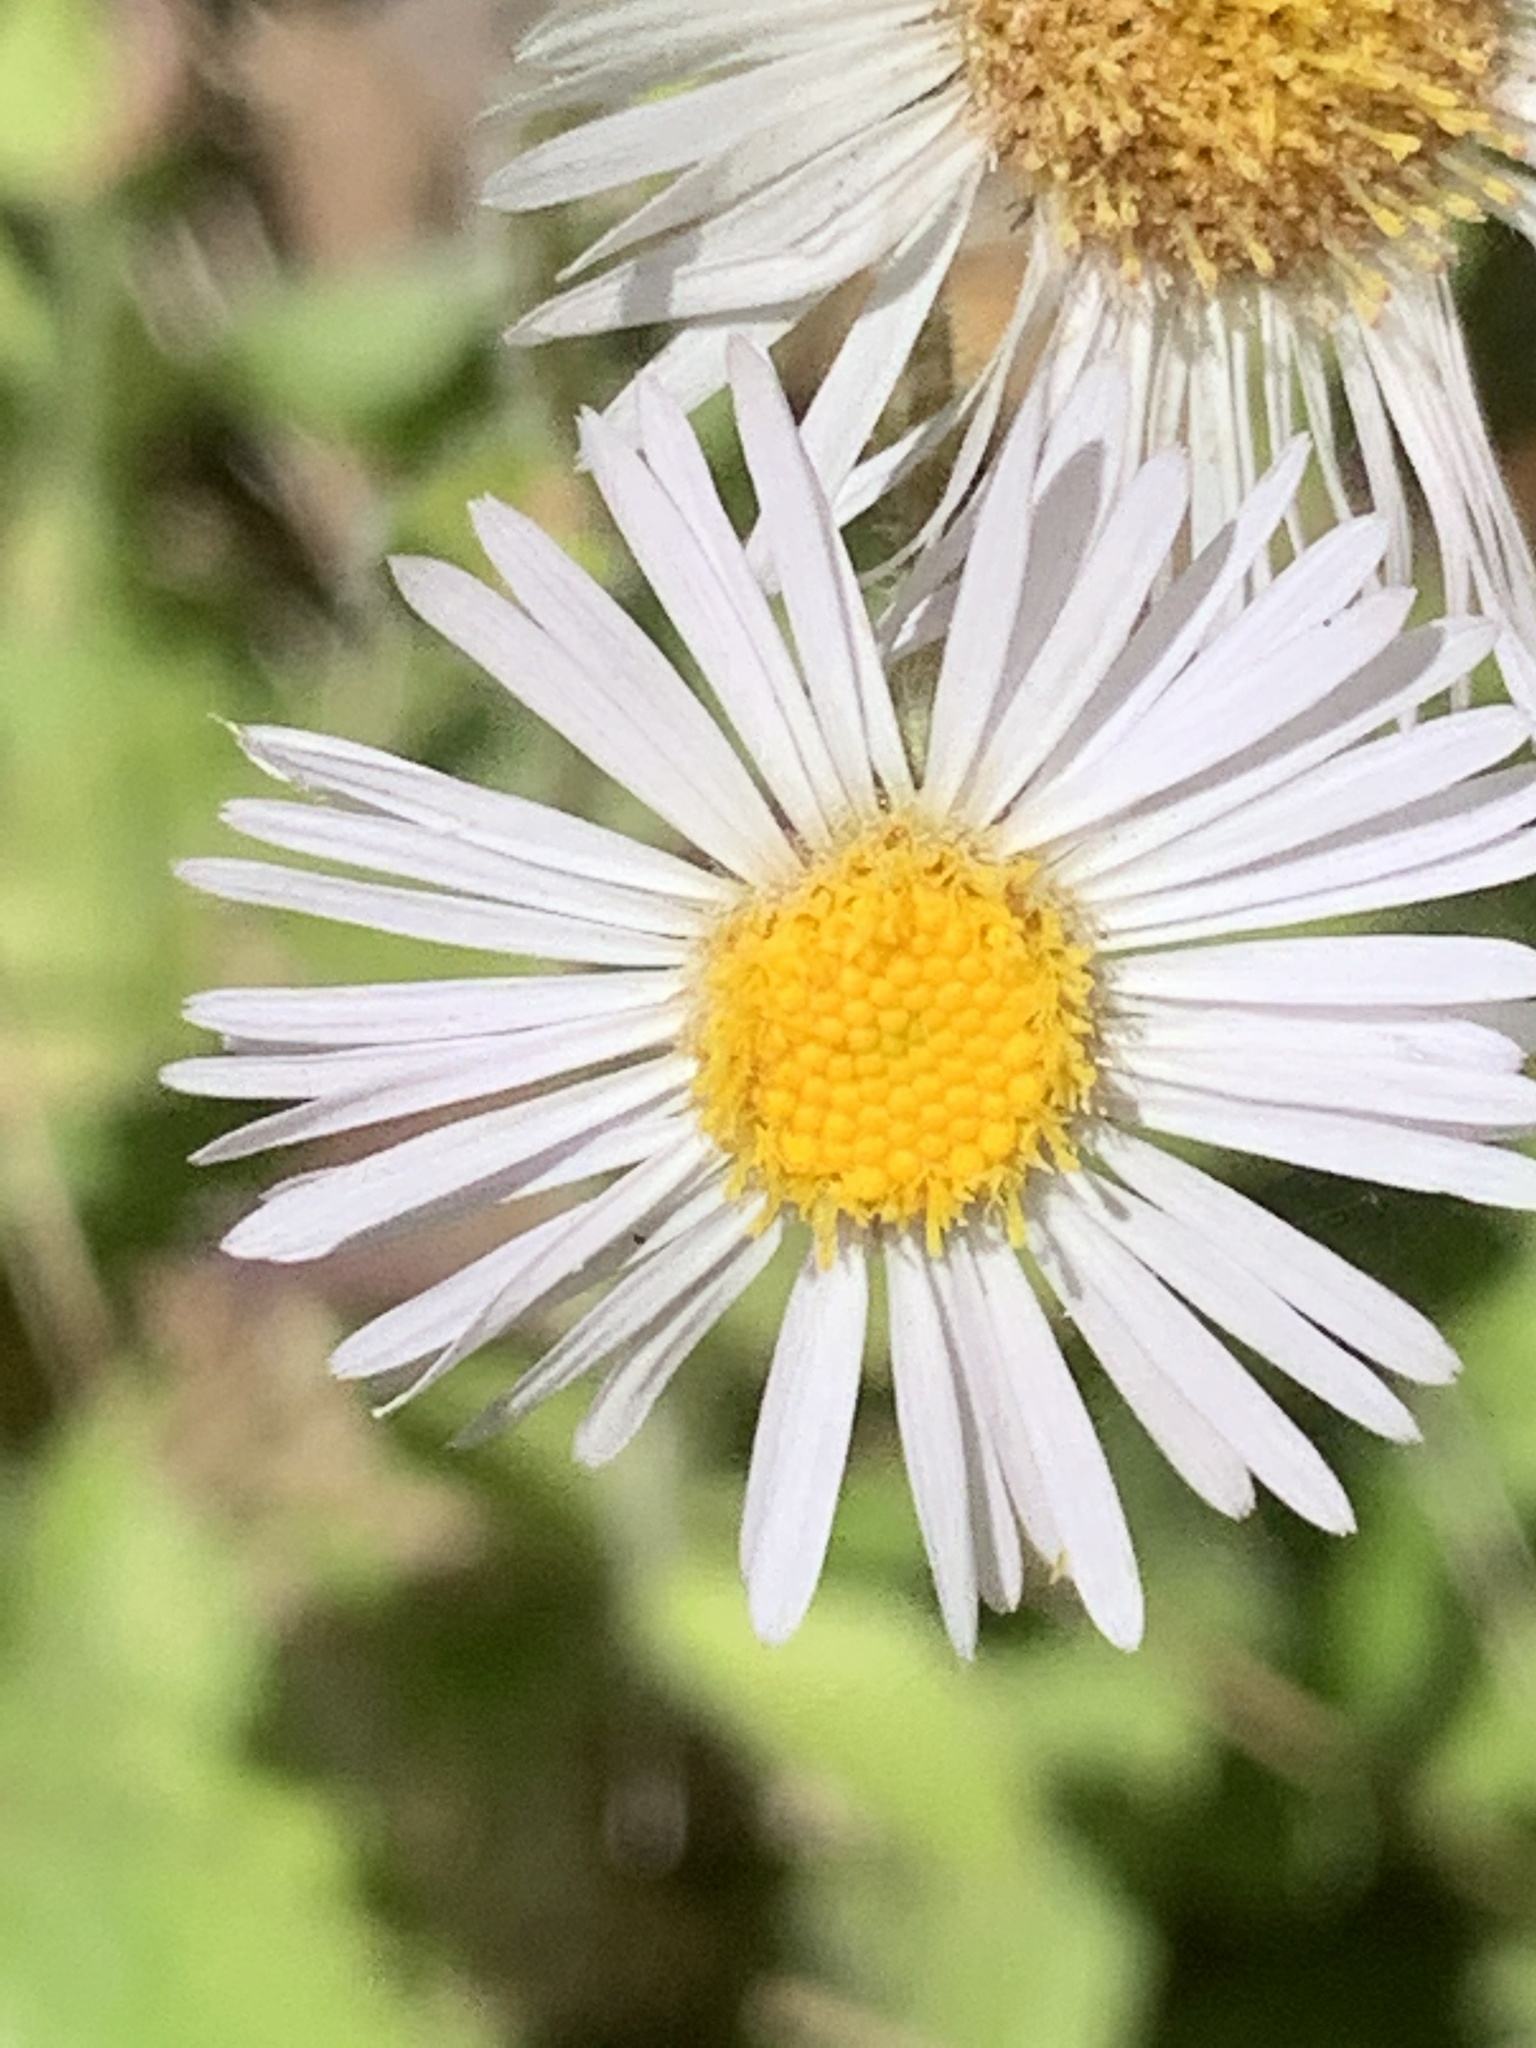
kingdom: Plantae
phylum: Tracheophyta
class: Magnoliopsida
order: Asterales
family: Asteraceae
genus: Erigeron
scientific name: Erigeron pulchellus
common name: Hairy fleabane
